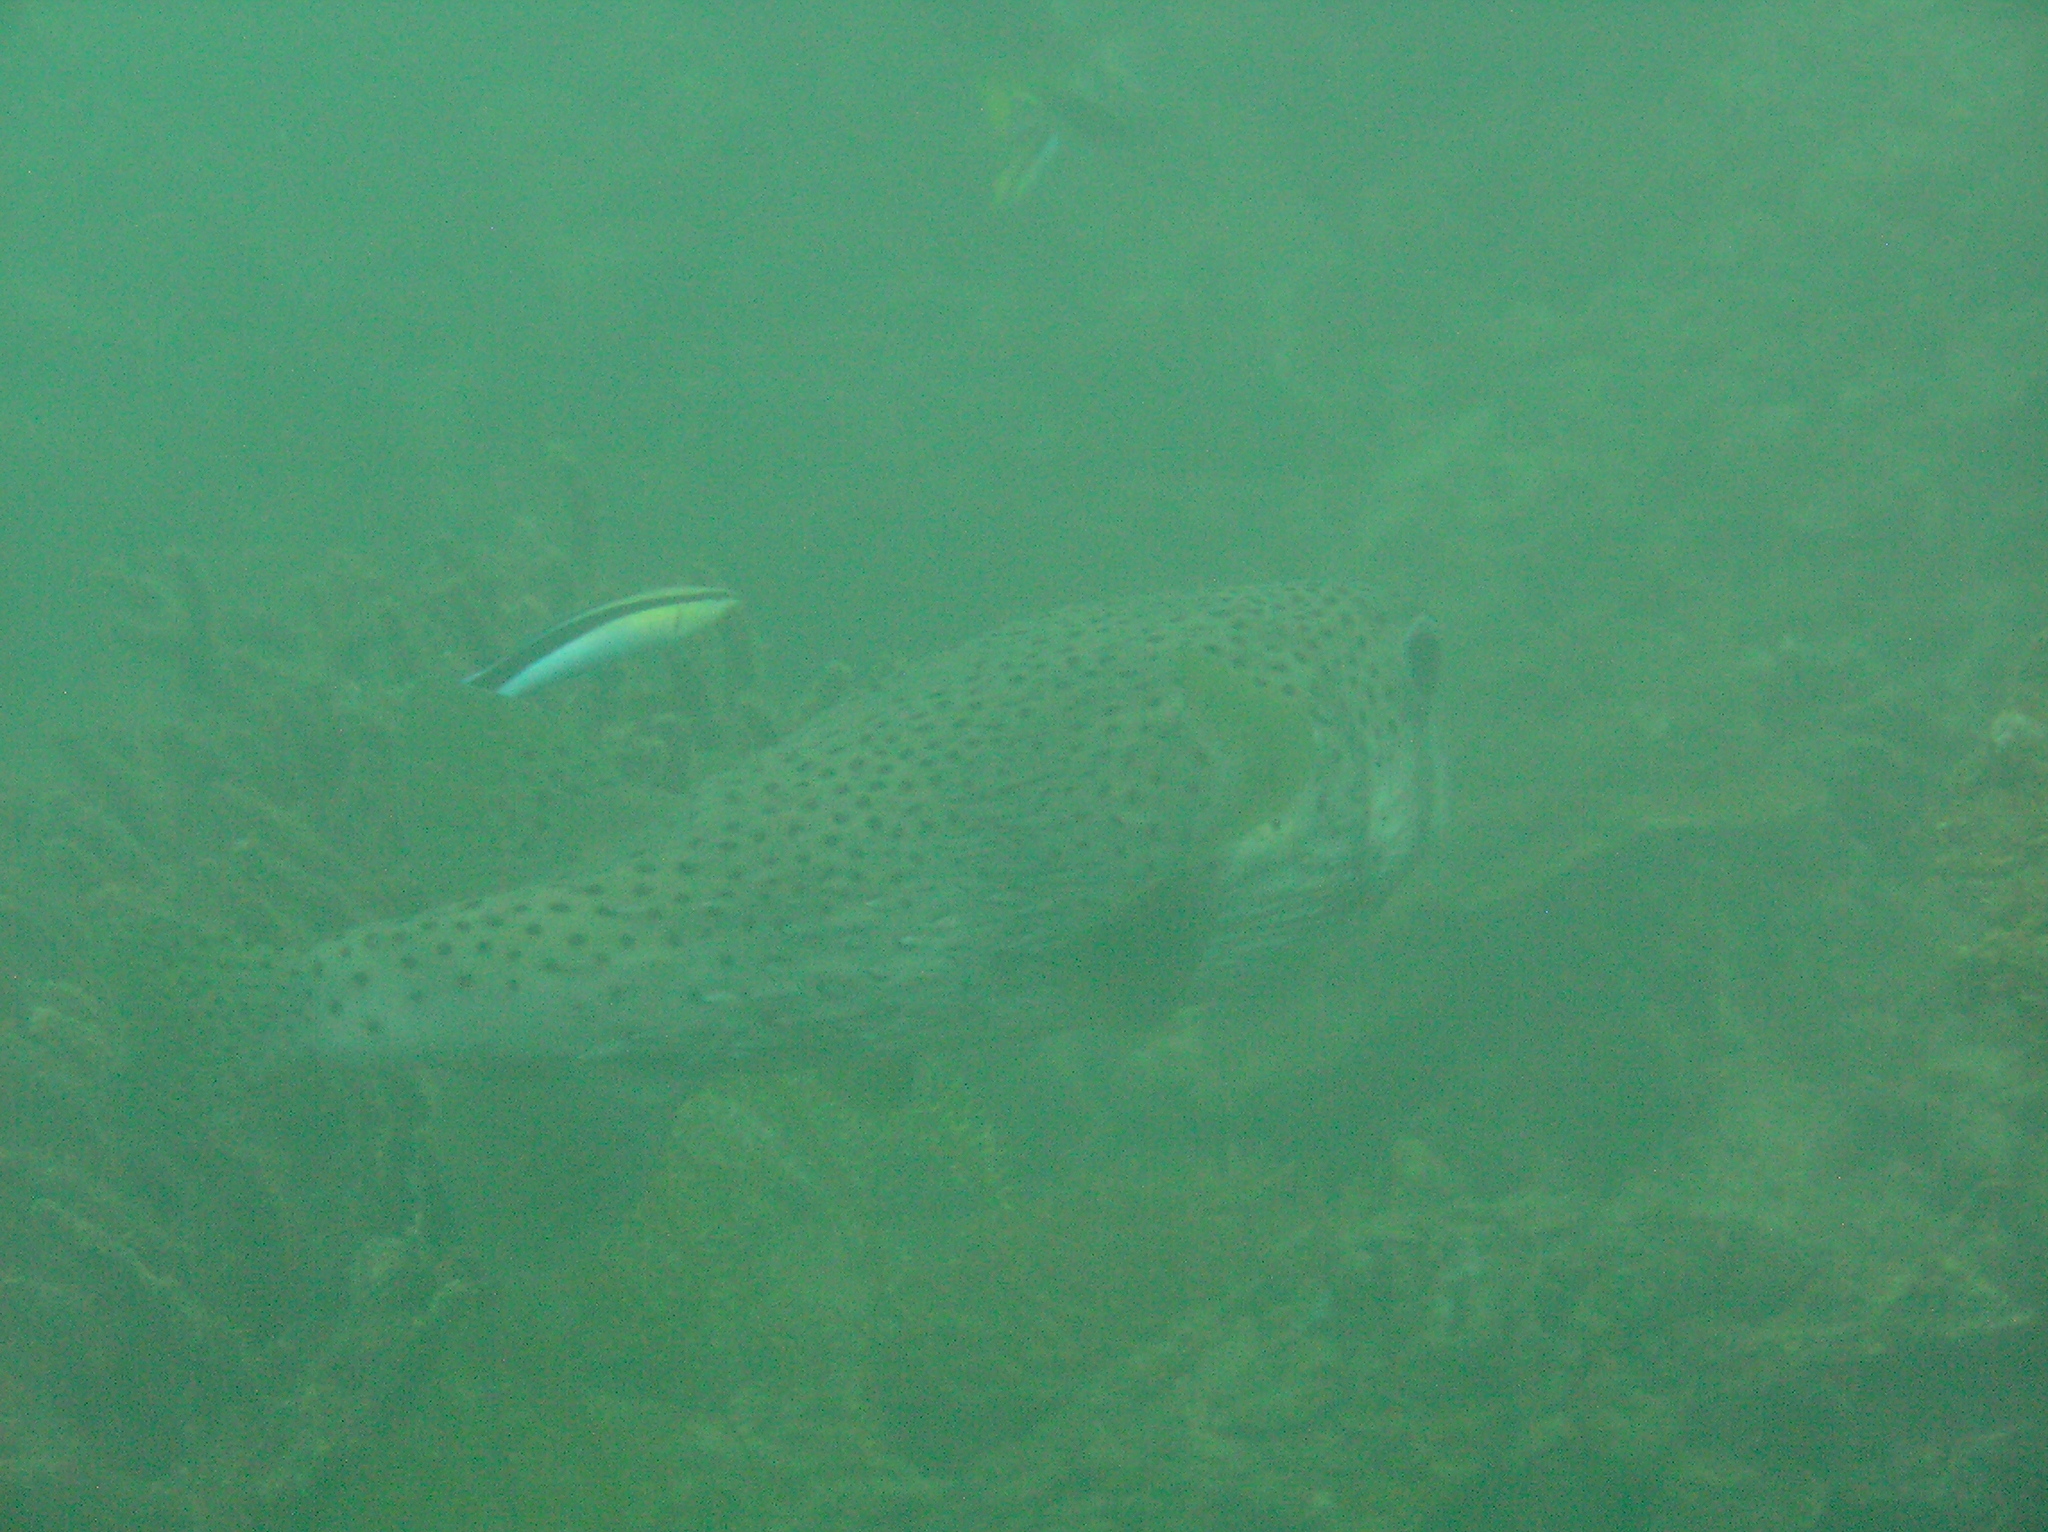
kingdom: Animalia
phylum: Chordata
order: Tetraodontiformes
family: Diodontidae
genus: Diodon
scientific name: Diodon hystrix
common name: Giant porcupinefish
